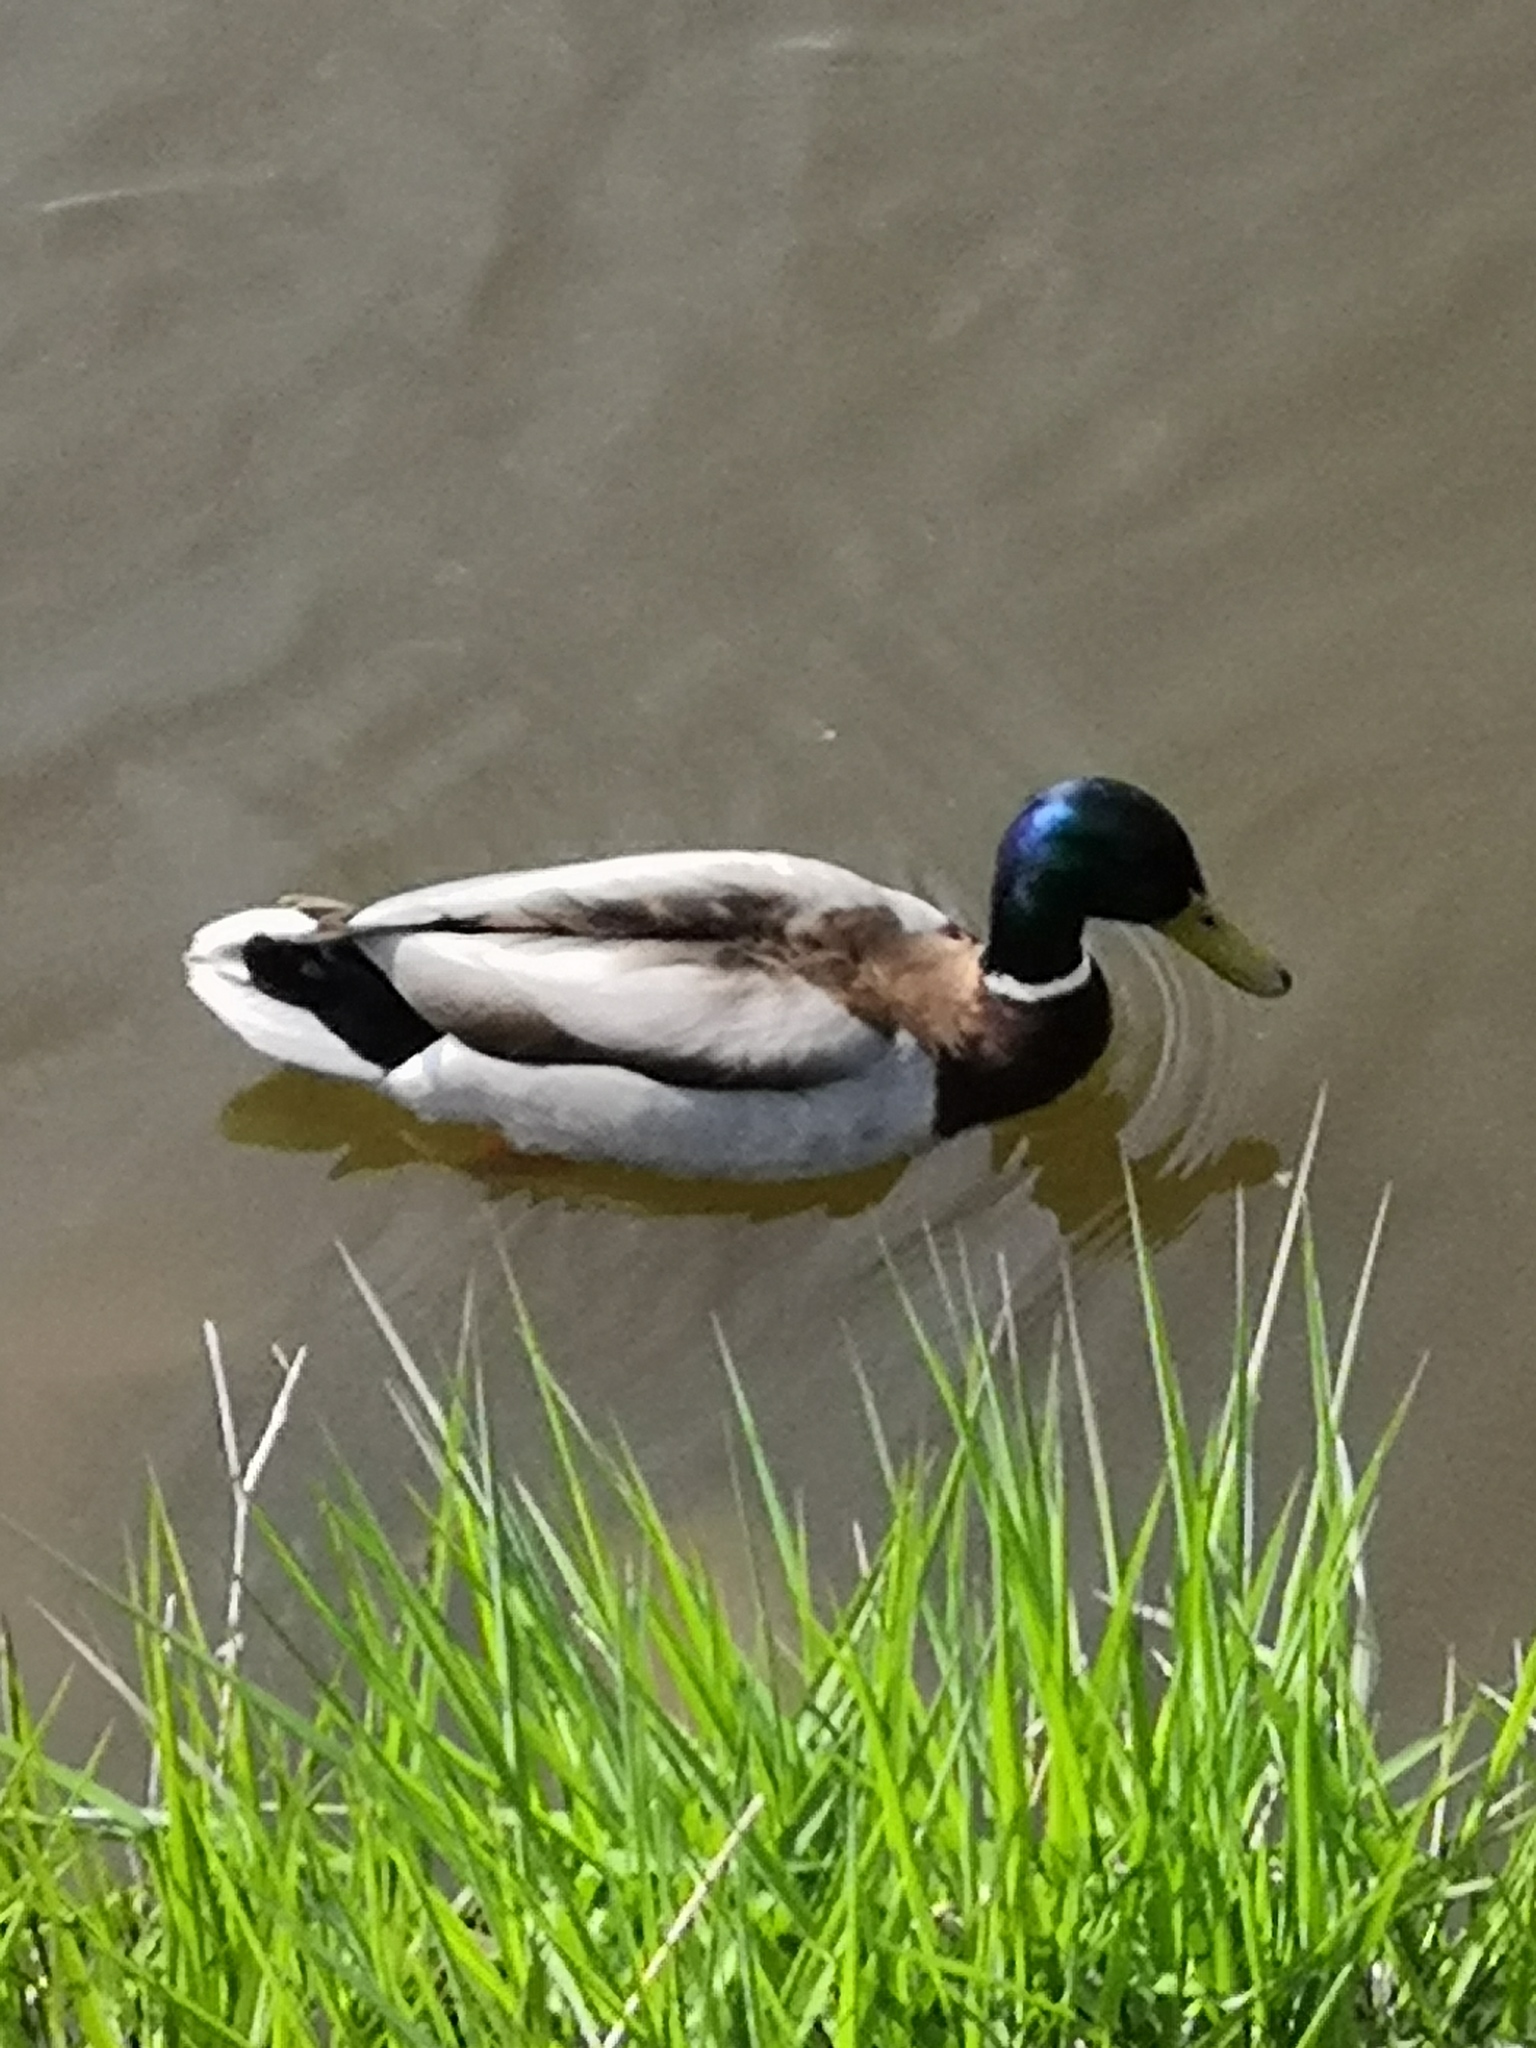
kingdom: Animalia
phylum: Chordata
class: Aves
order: Anseriformes
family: Anatidae
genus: Anas
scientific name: Anas platyrhynchos
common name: Mallard
